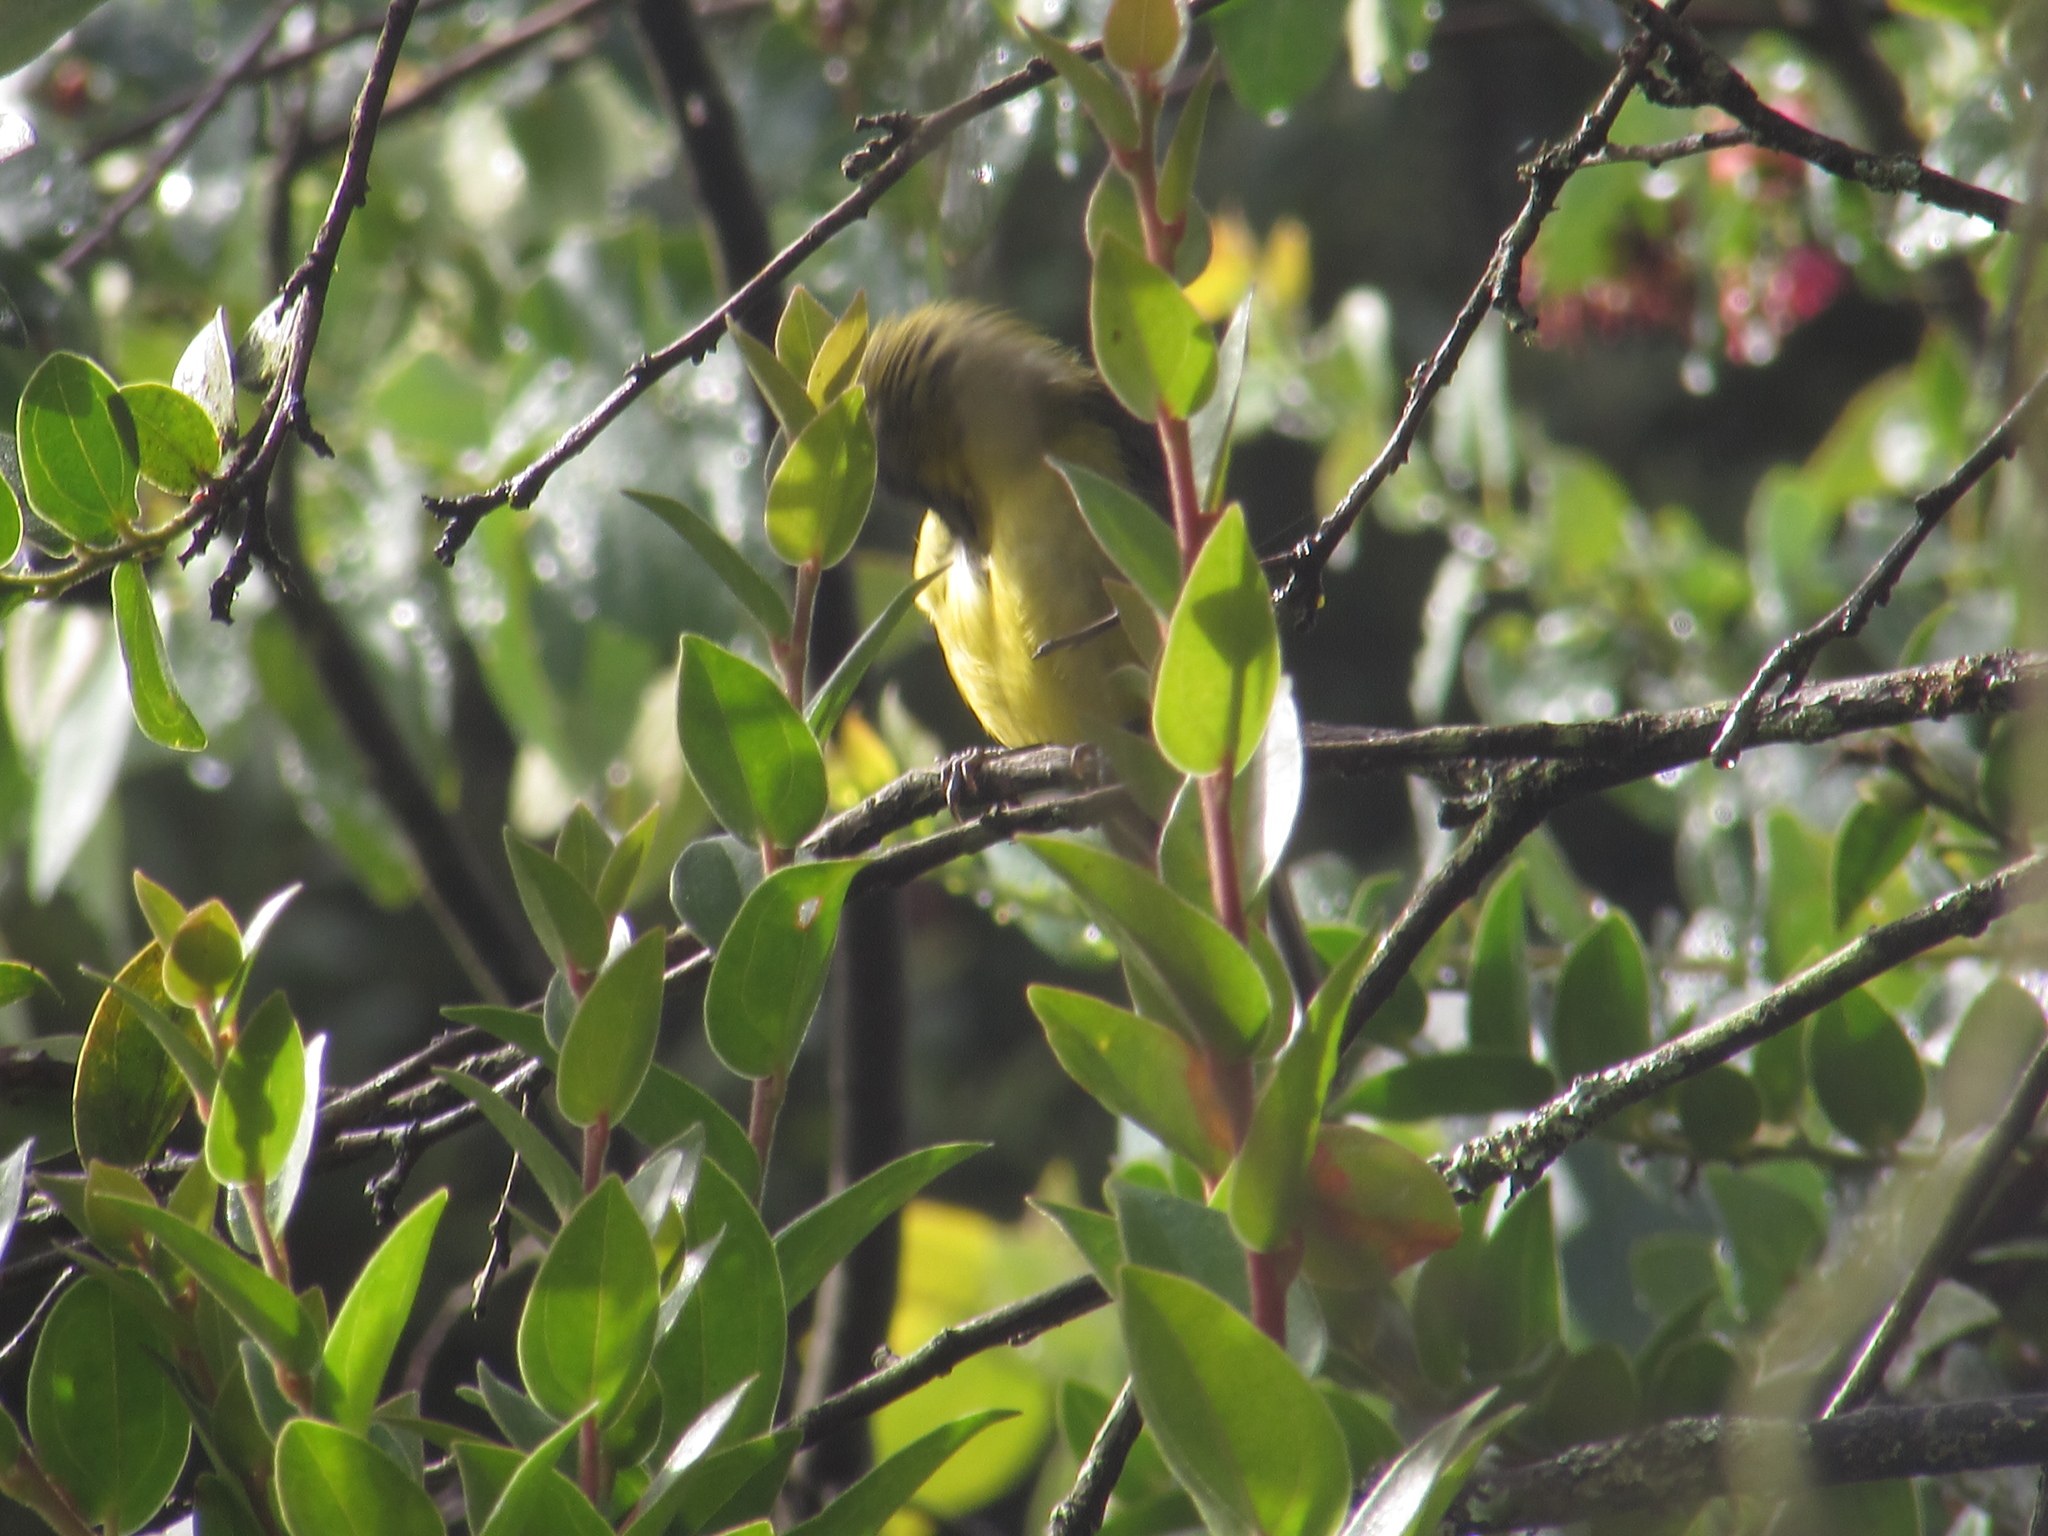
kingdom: Animalia
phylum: Chordata
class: Aves
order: Passeriformes
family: Thraupidae
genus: Thlypopsis
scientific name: Thlypopsis superciliaris
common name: Superciliaried hemispingus
